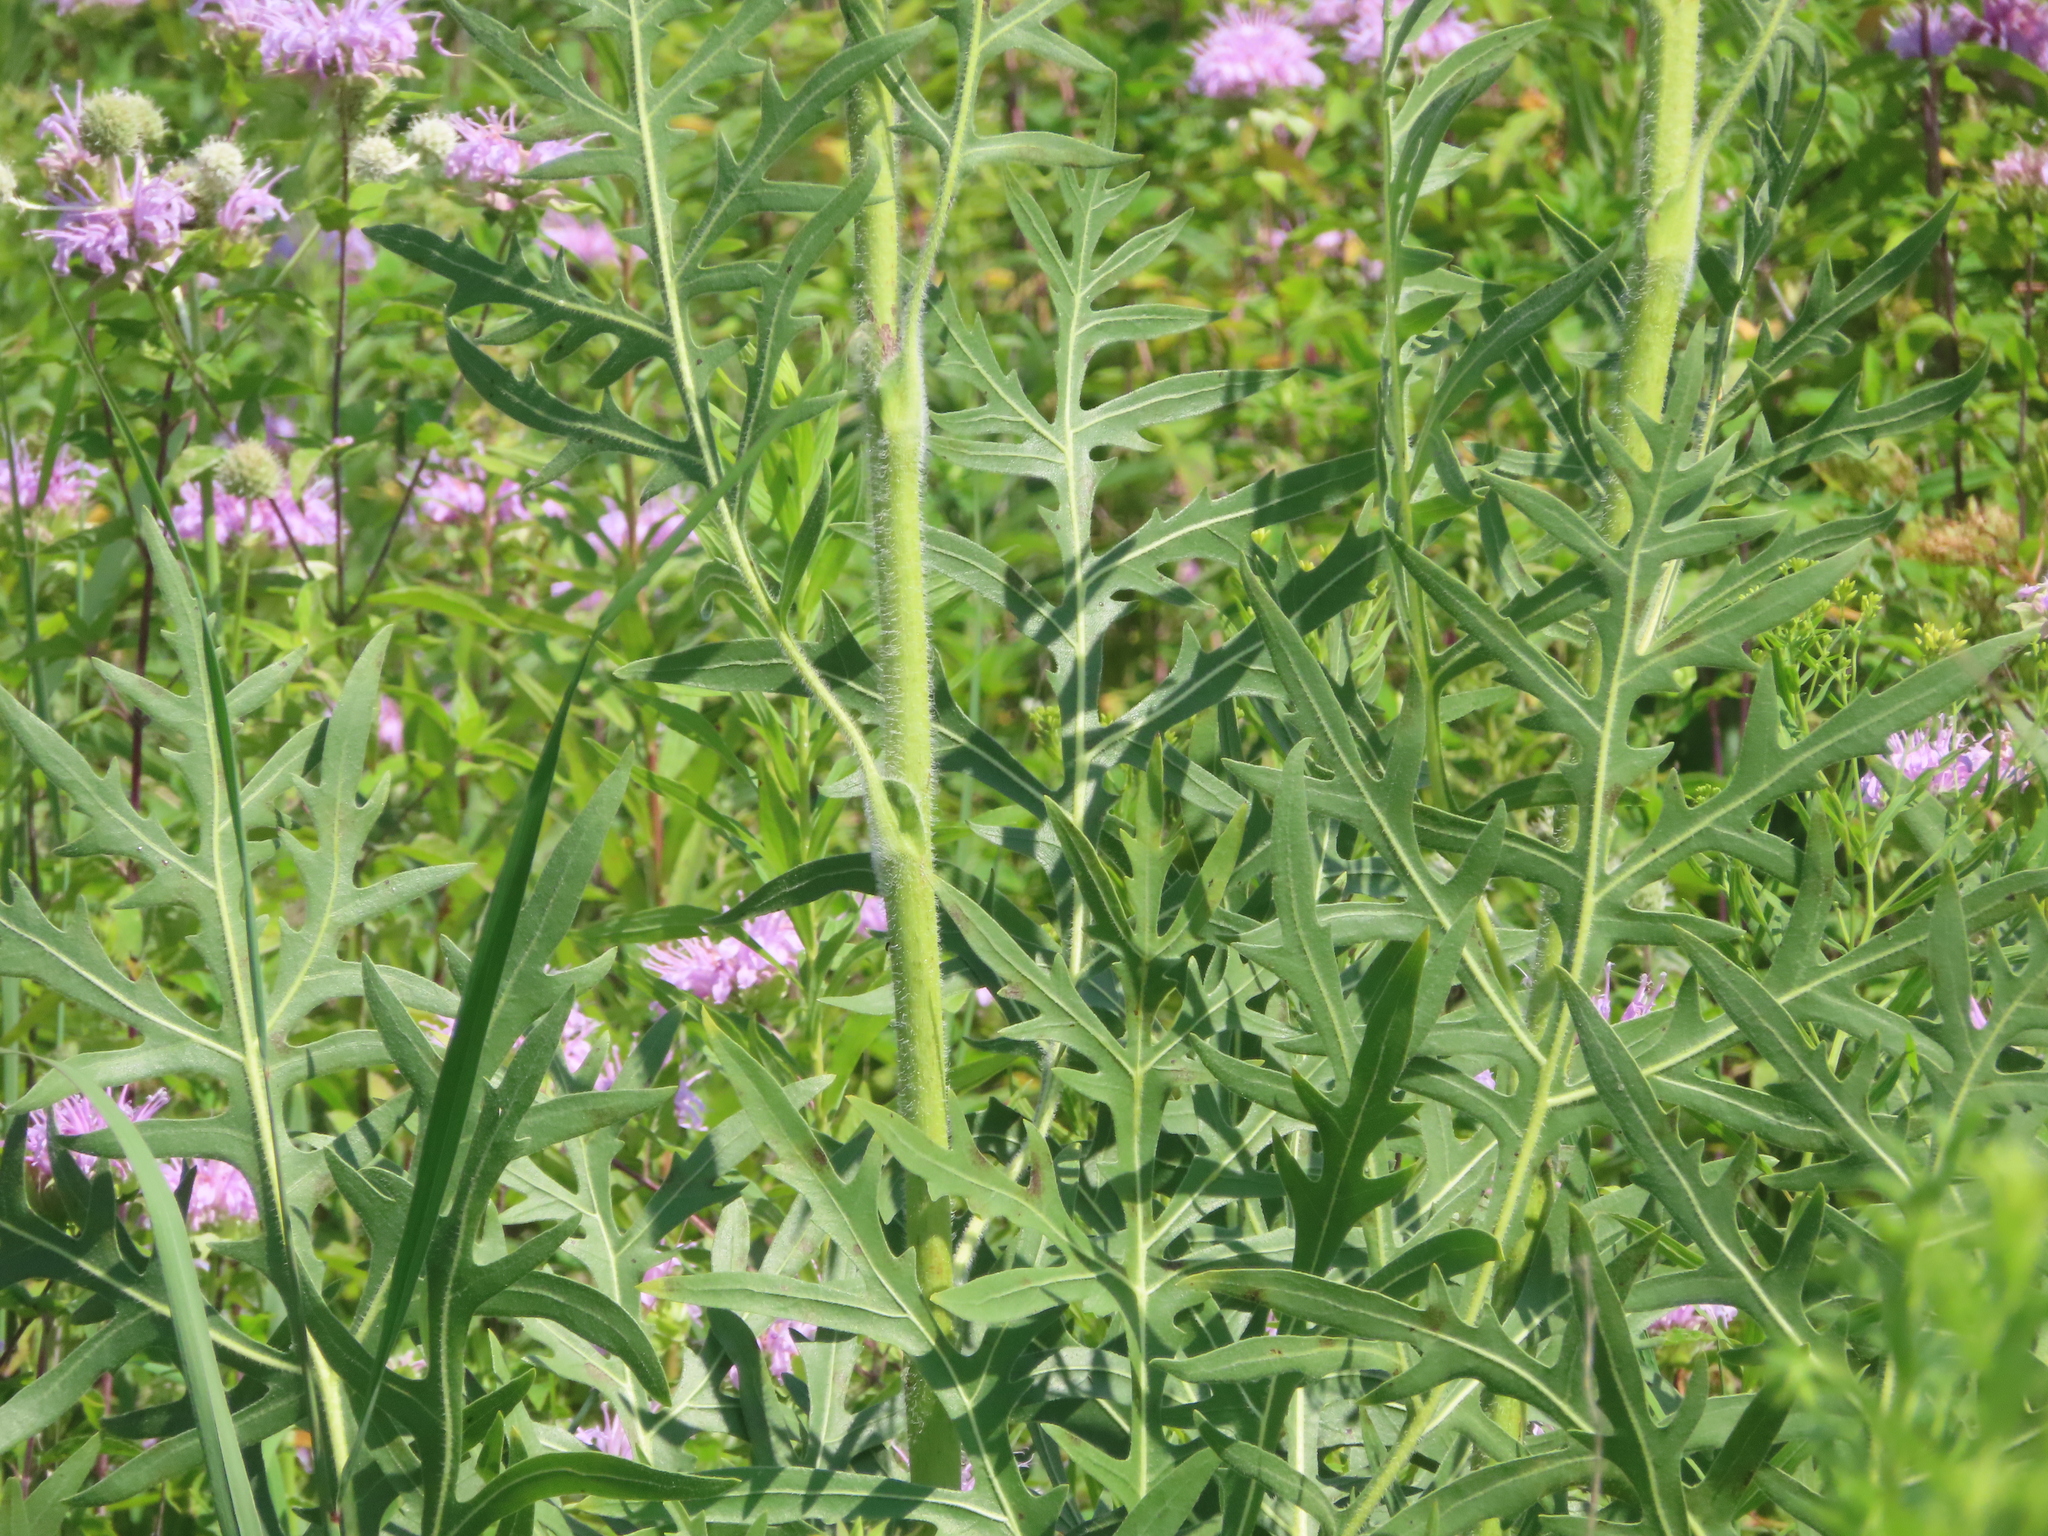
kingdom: Plantae
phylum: Tracheophyta
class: Magnoliopsida
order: Asterales
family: Asteraceae
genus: Silphium
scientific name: Silphium laciniatum
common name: Polarplant
